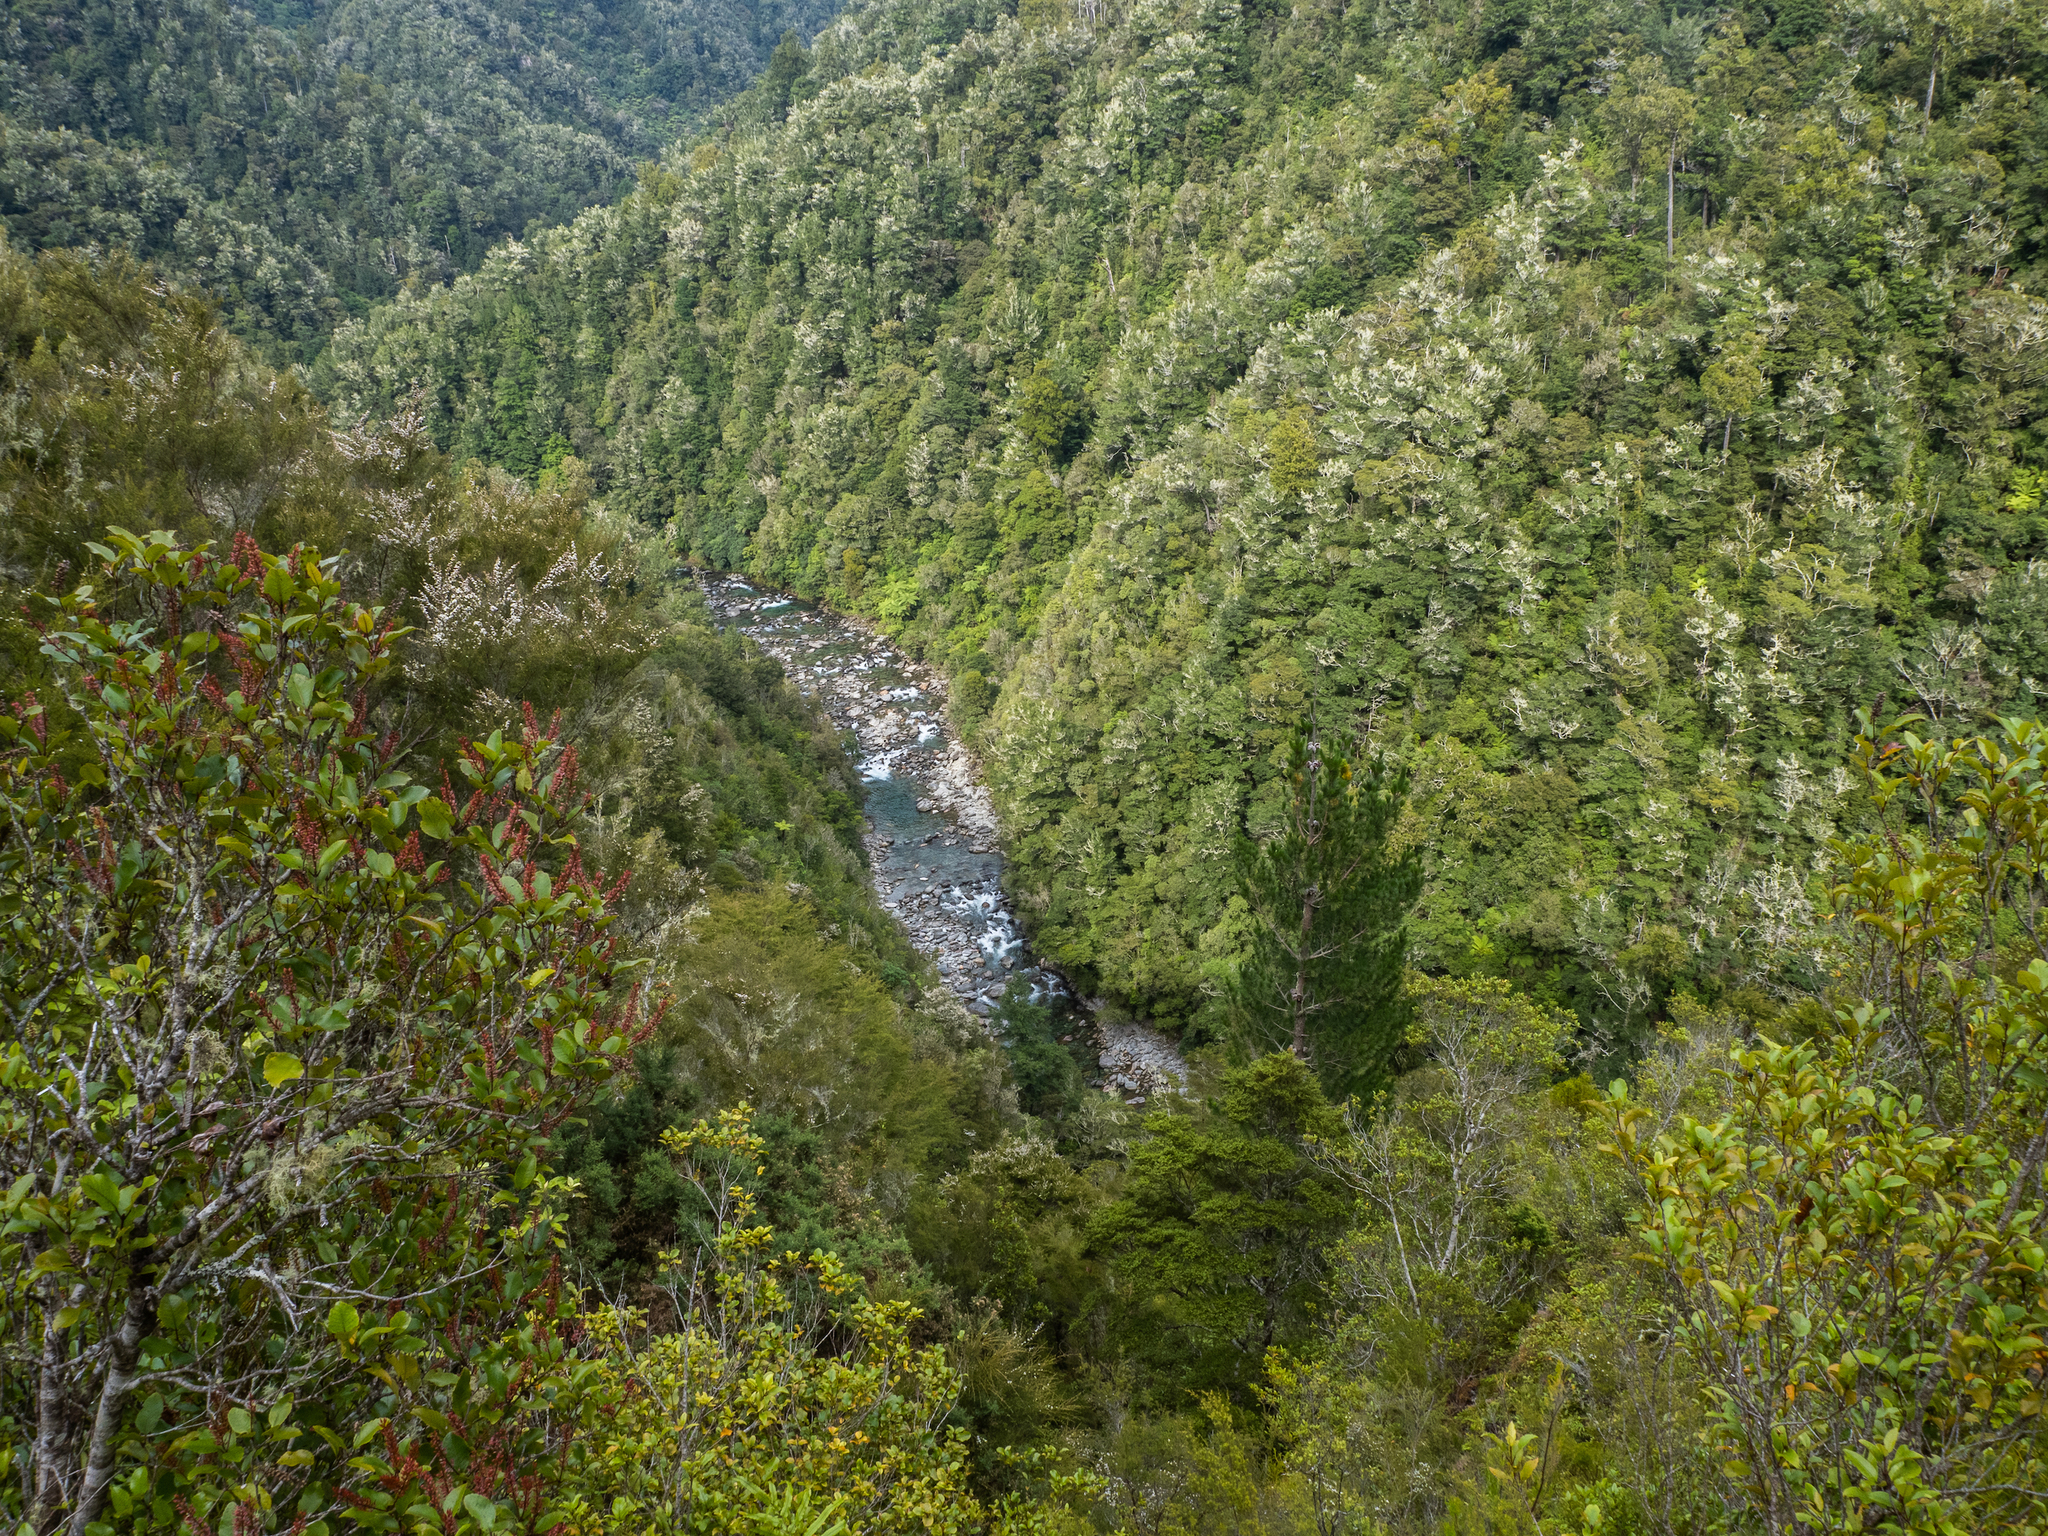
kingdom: Plantae
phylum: Tracheophyta
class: Pinopsida
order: Pinales
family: Pinaceae
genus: Pinus
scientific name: Pinus radiata
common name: Monterey pine
